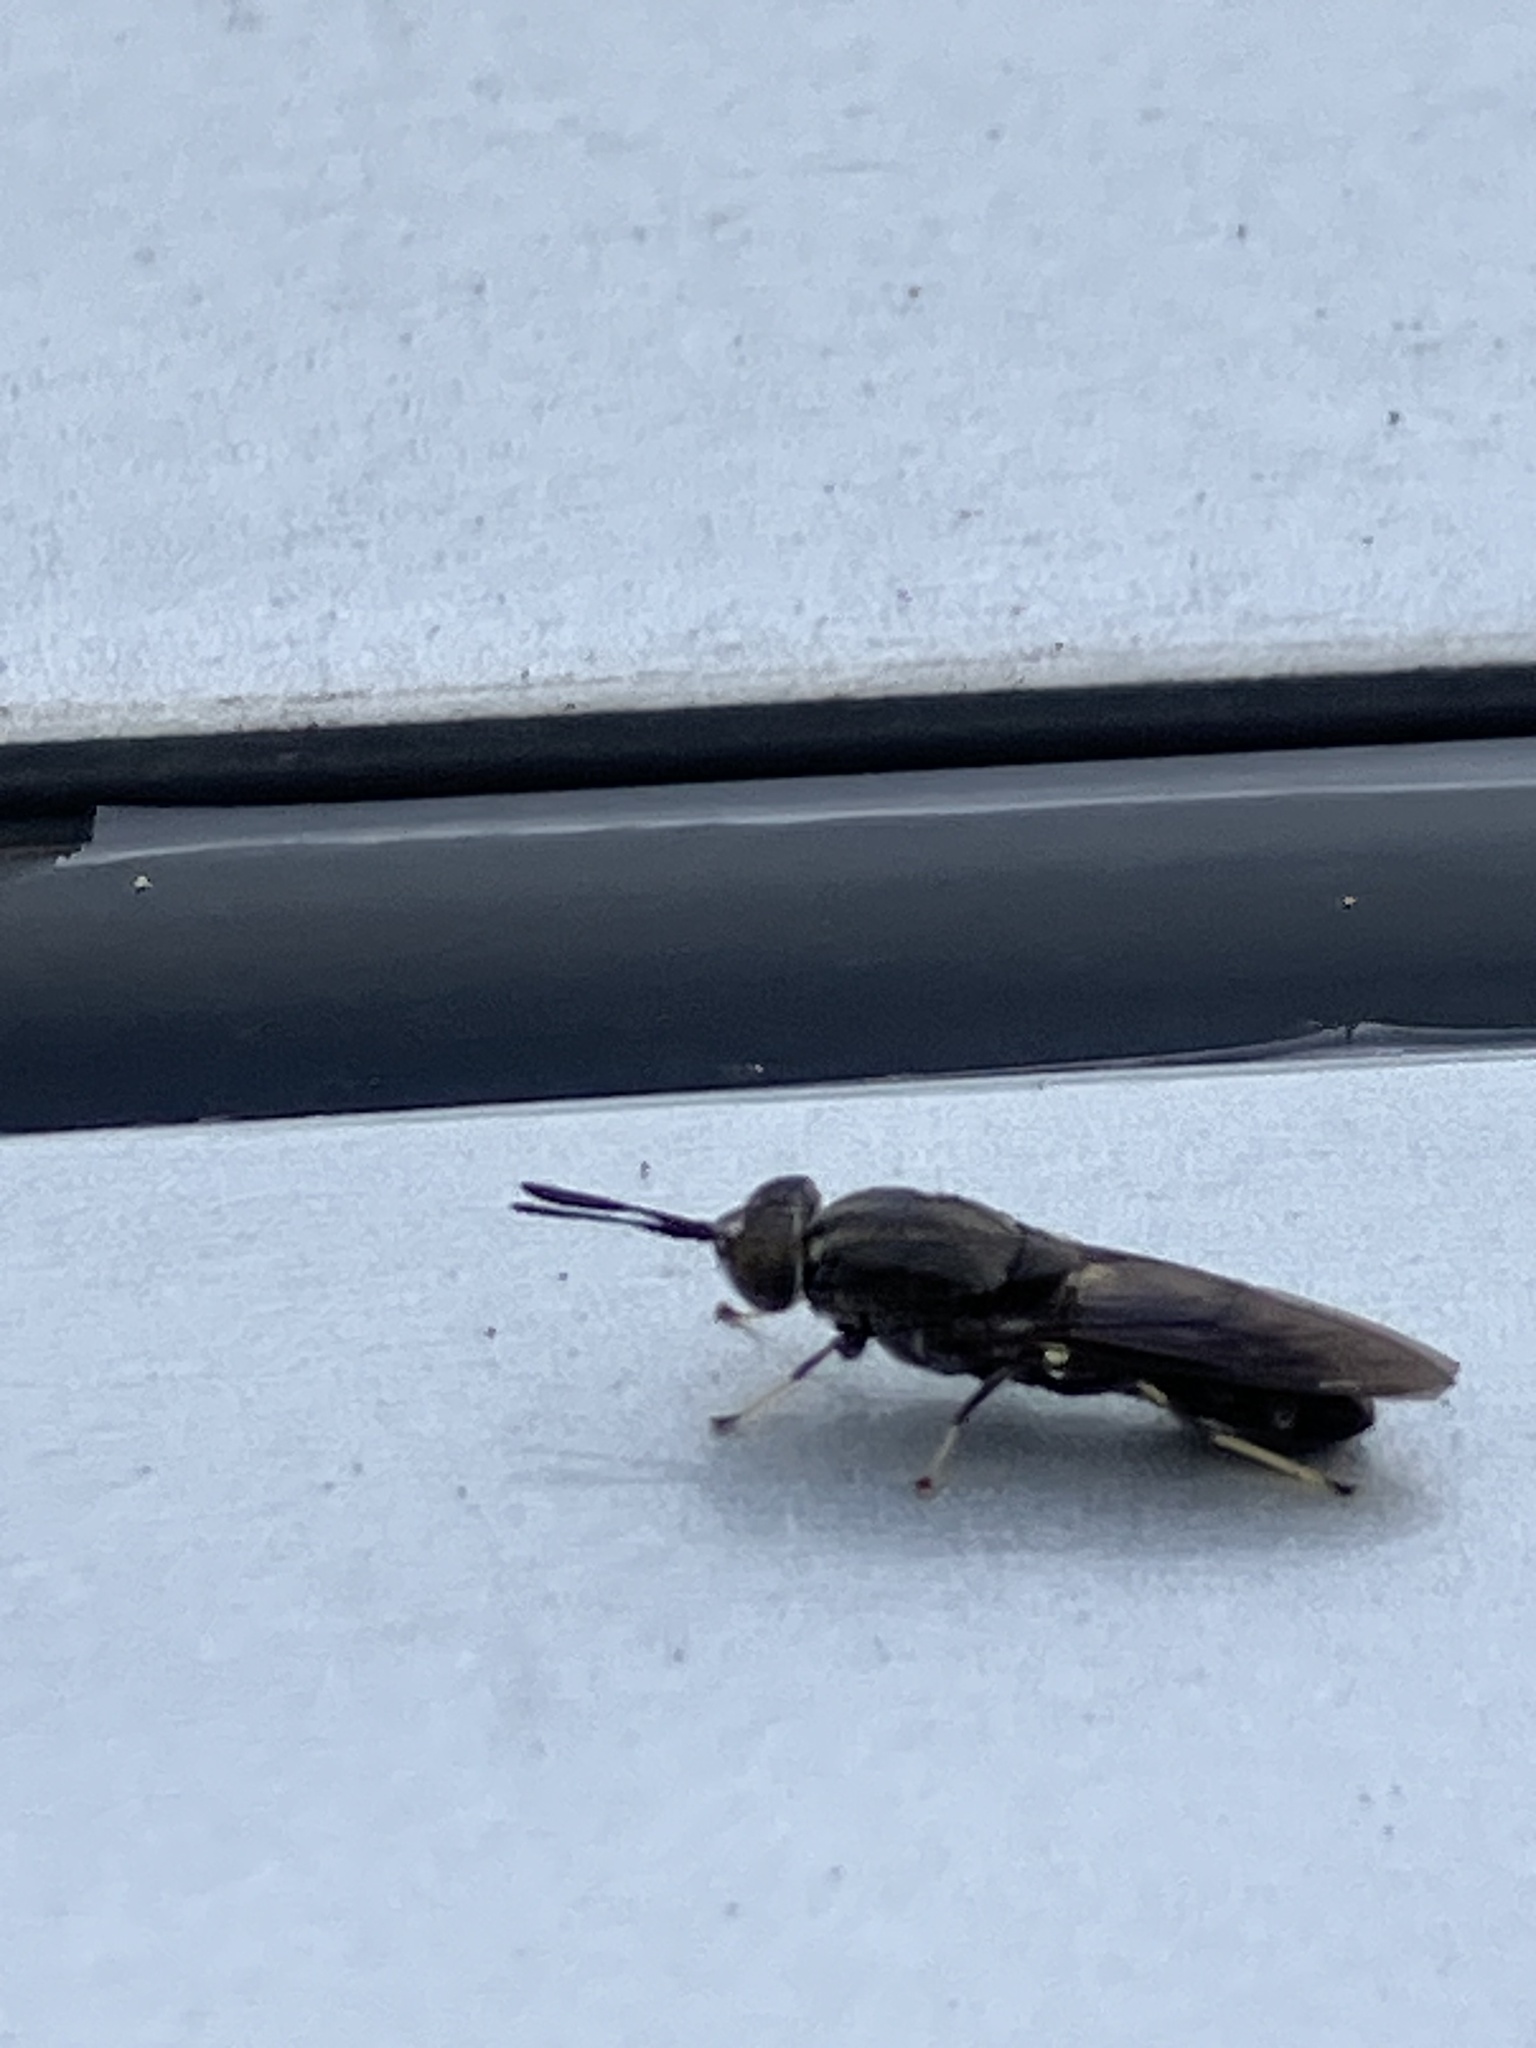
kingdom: Animalia
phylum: Arthropoda
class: Insecta
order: Diptera
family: Stratiomyidae
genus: Hermetia
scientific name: Hermetia sexmaculata
